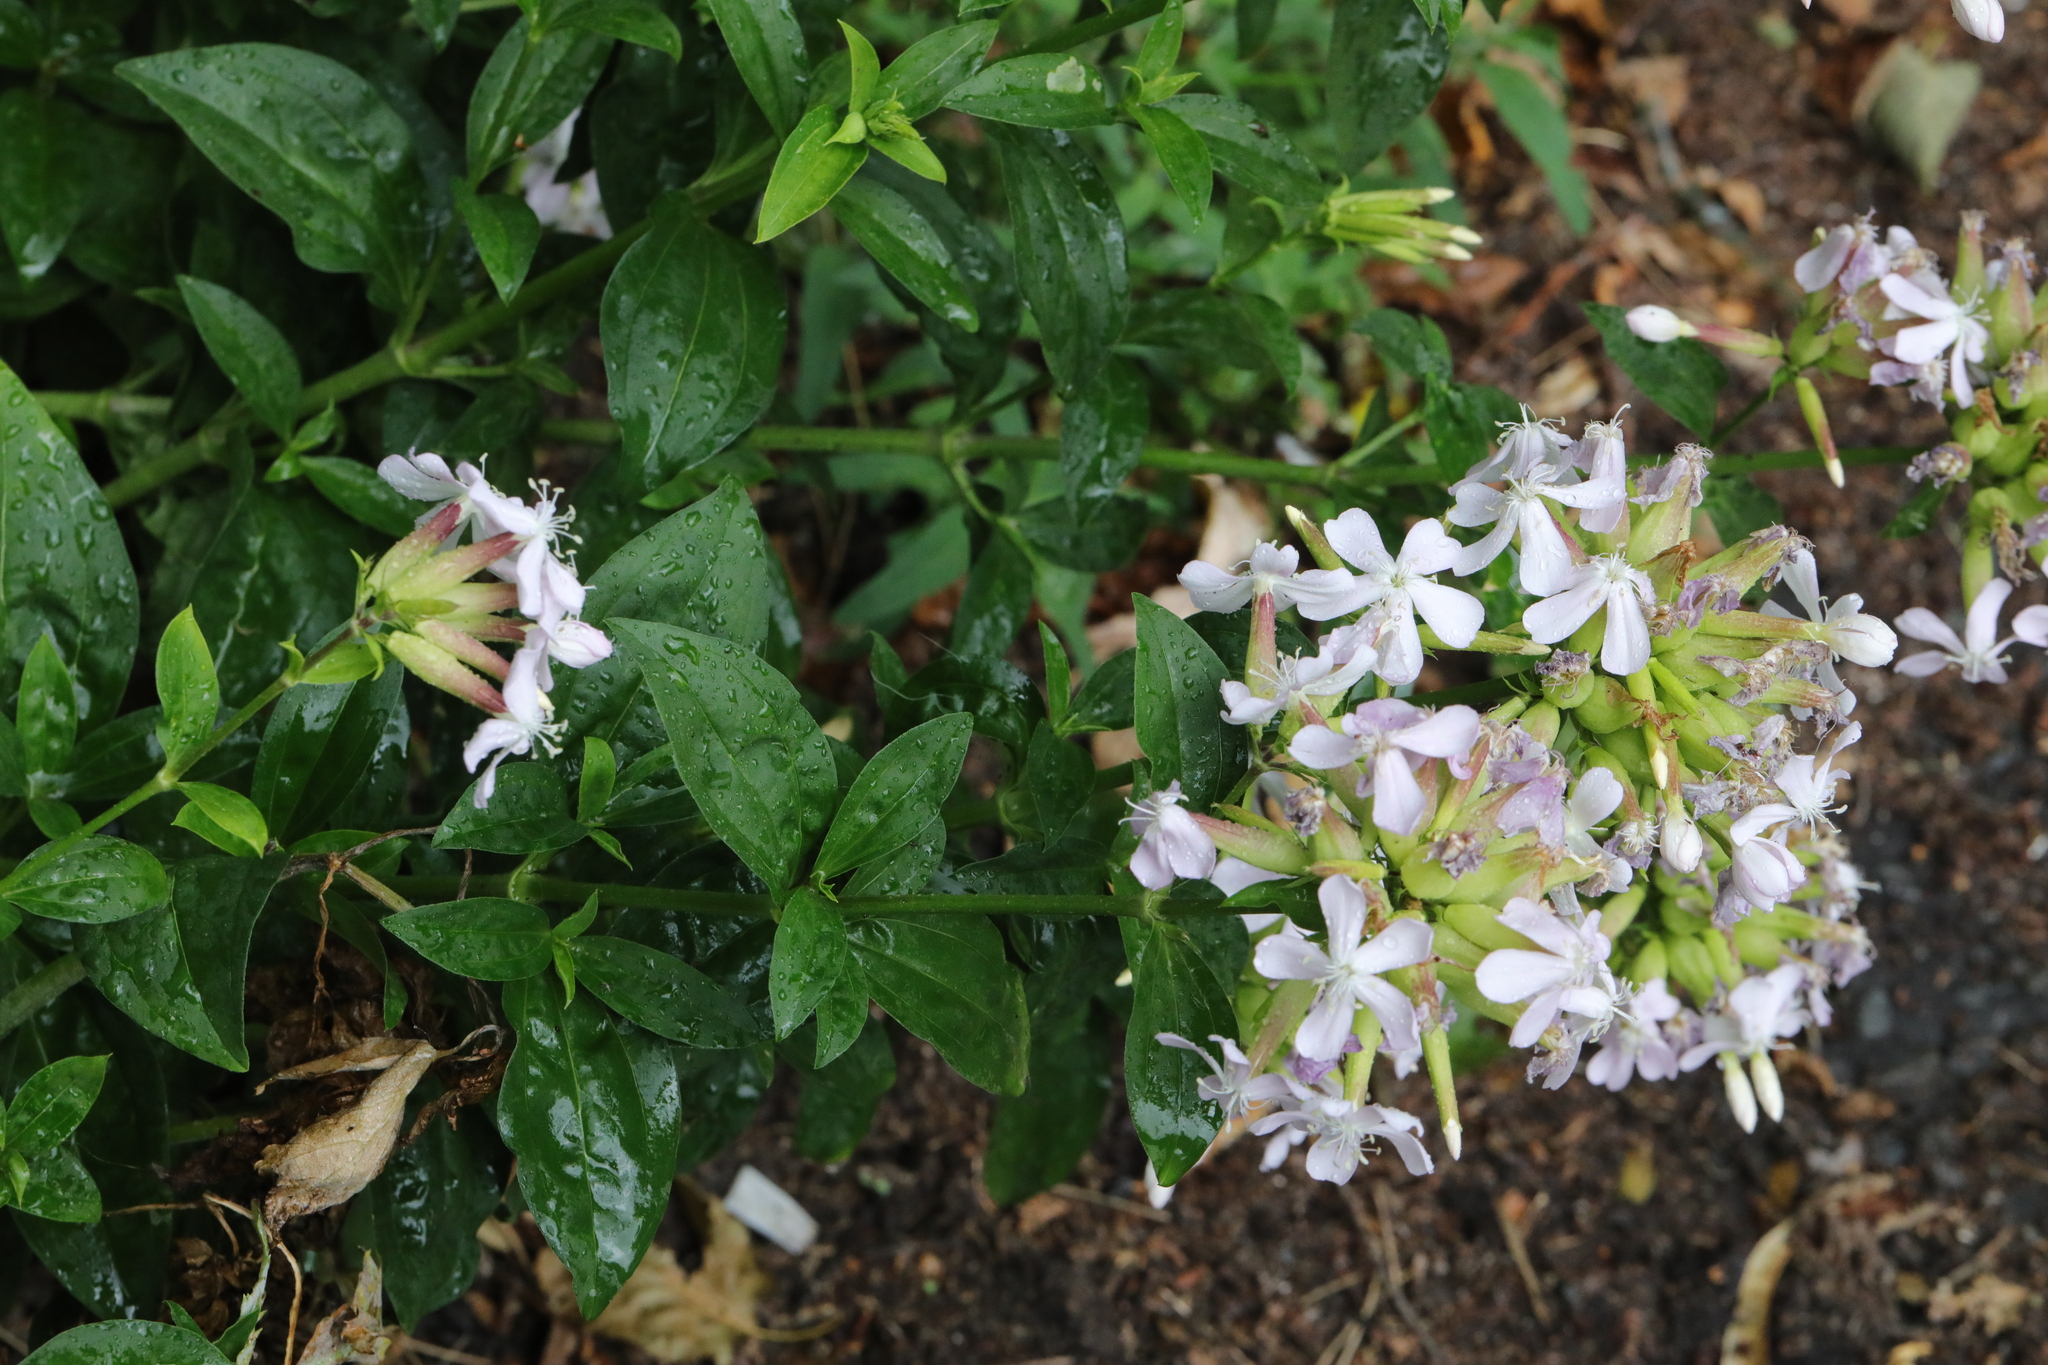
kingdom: Plantae
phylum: Tracheophyta
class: Magnoliopsida
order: Caryophyllales
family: Caryophyllaceae
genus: Saponaria
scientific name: Saponaria officinalis
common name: Soapwort
